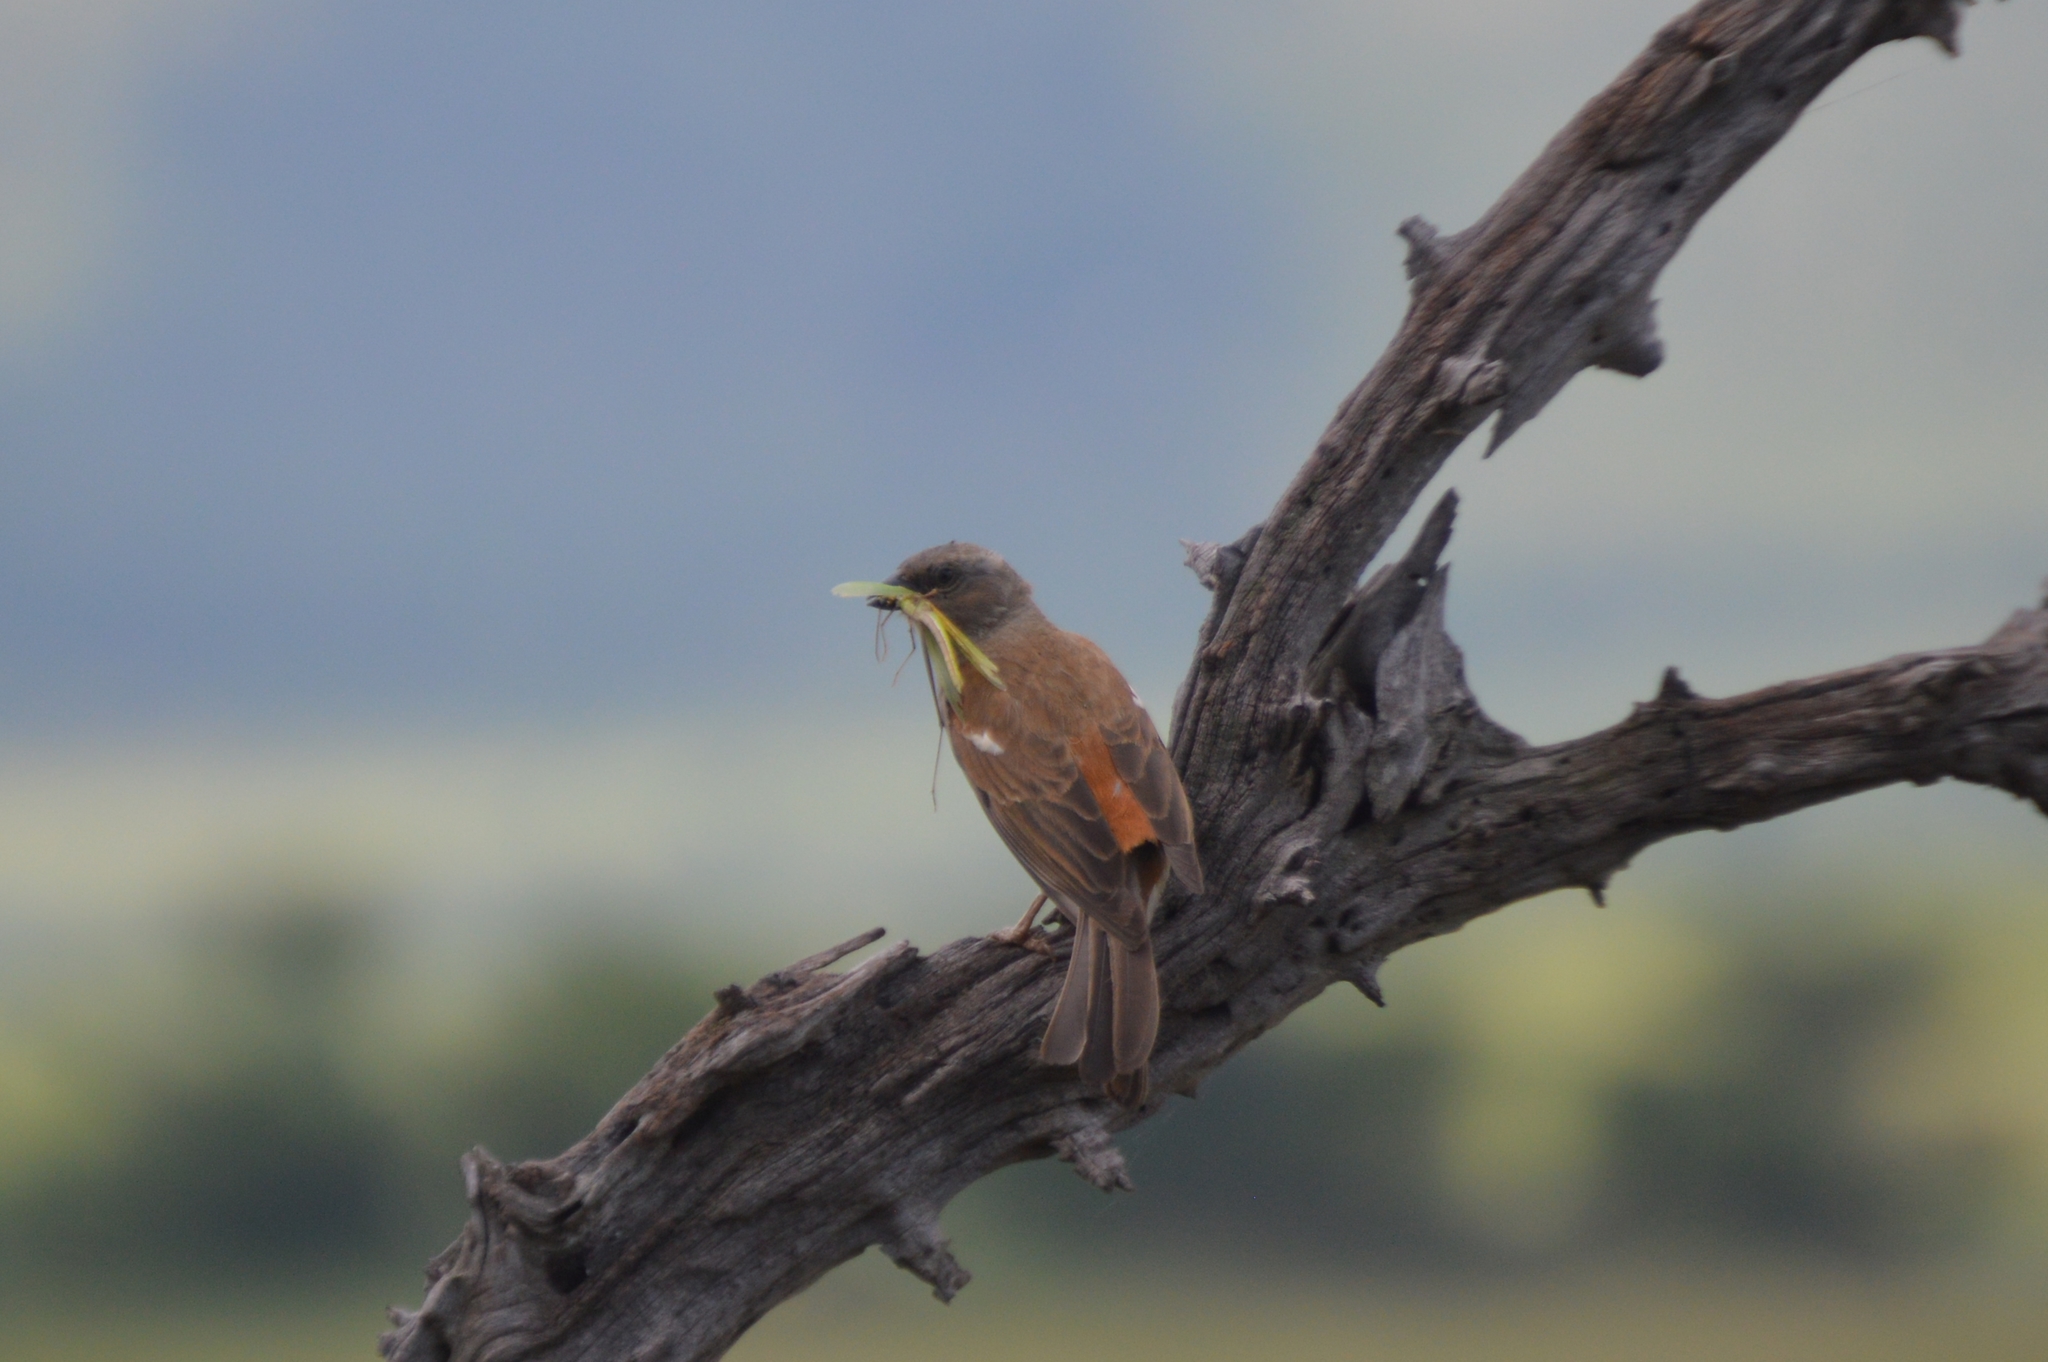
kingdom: Animalia
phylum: Chordata
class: Aves
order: Passeriformes
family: Passeridae
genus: Passer
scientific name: Passer diffusus
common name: Southern grey-headed sparrow
